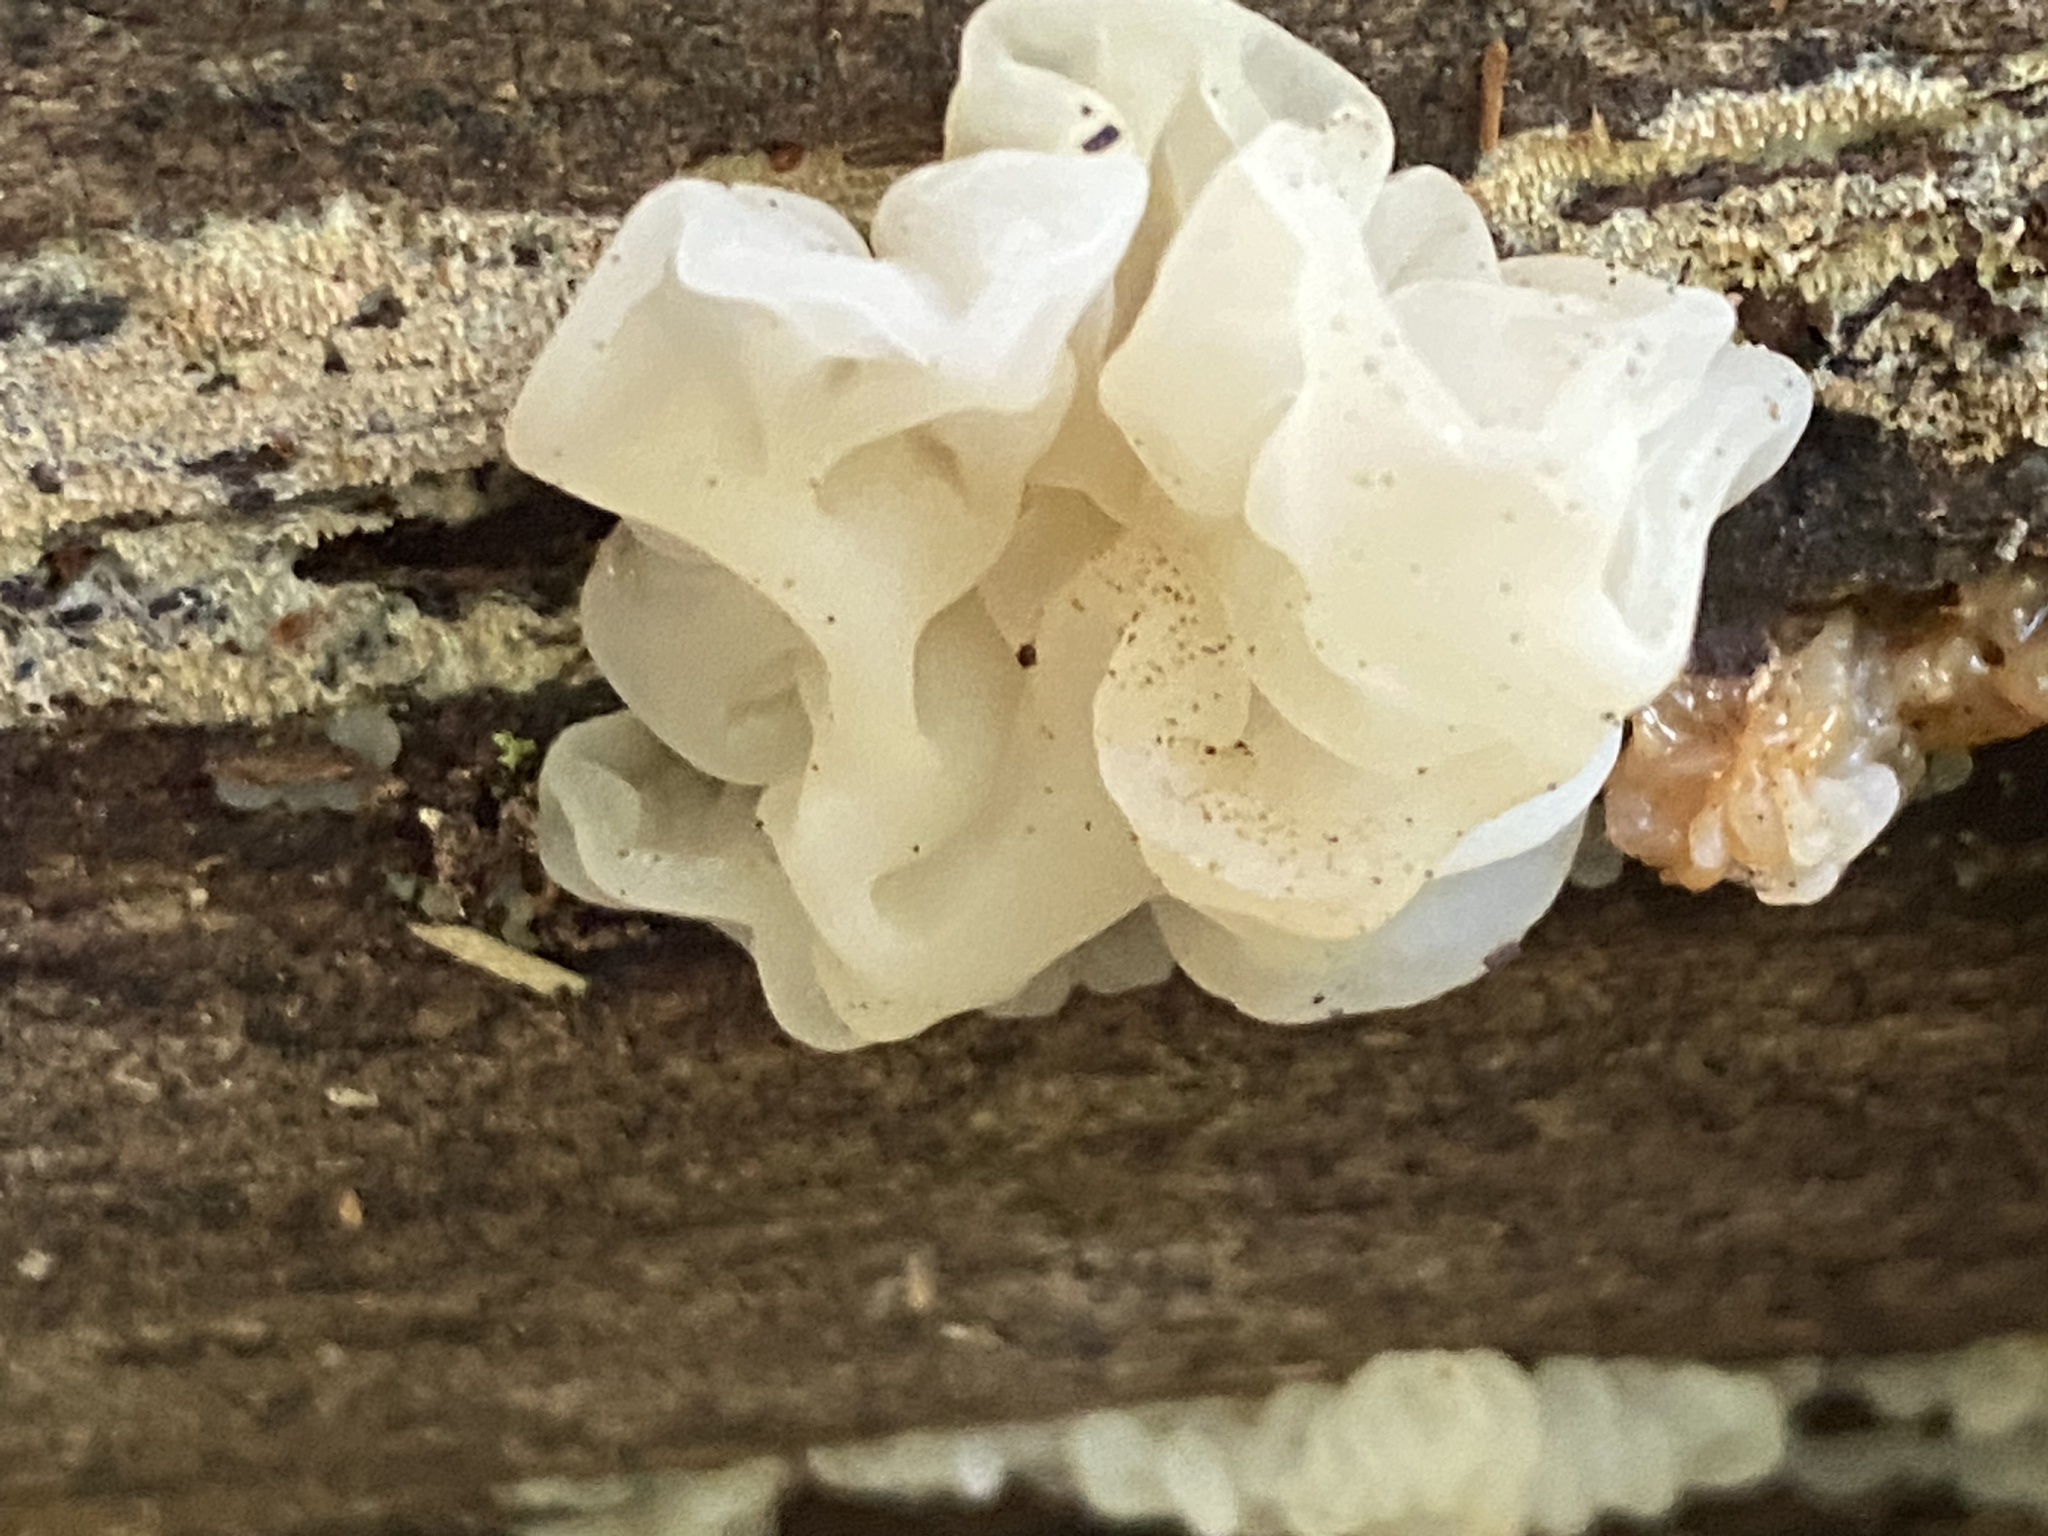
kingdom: Fungi
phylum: Basidiomycota
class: Agaricomycetes
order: Auriculariales
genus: Ductifera
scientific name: Ductifera pululahuana
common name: White jelly fungus
